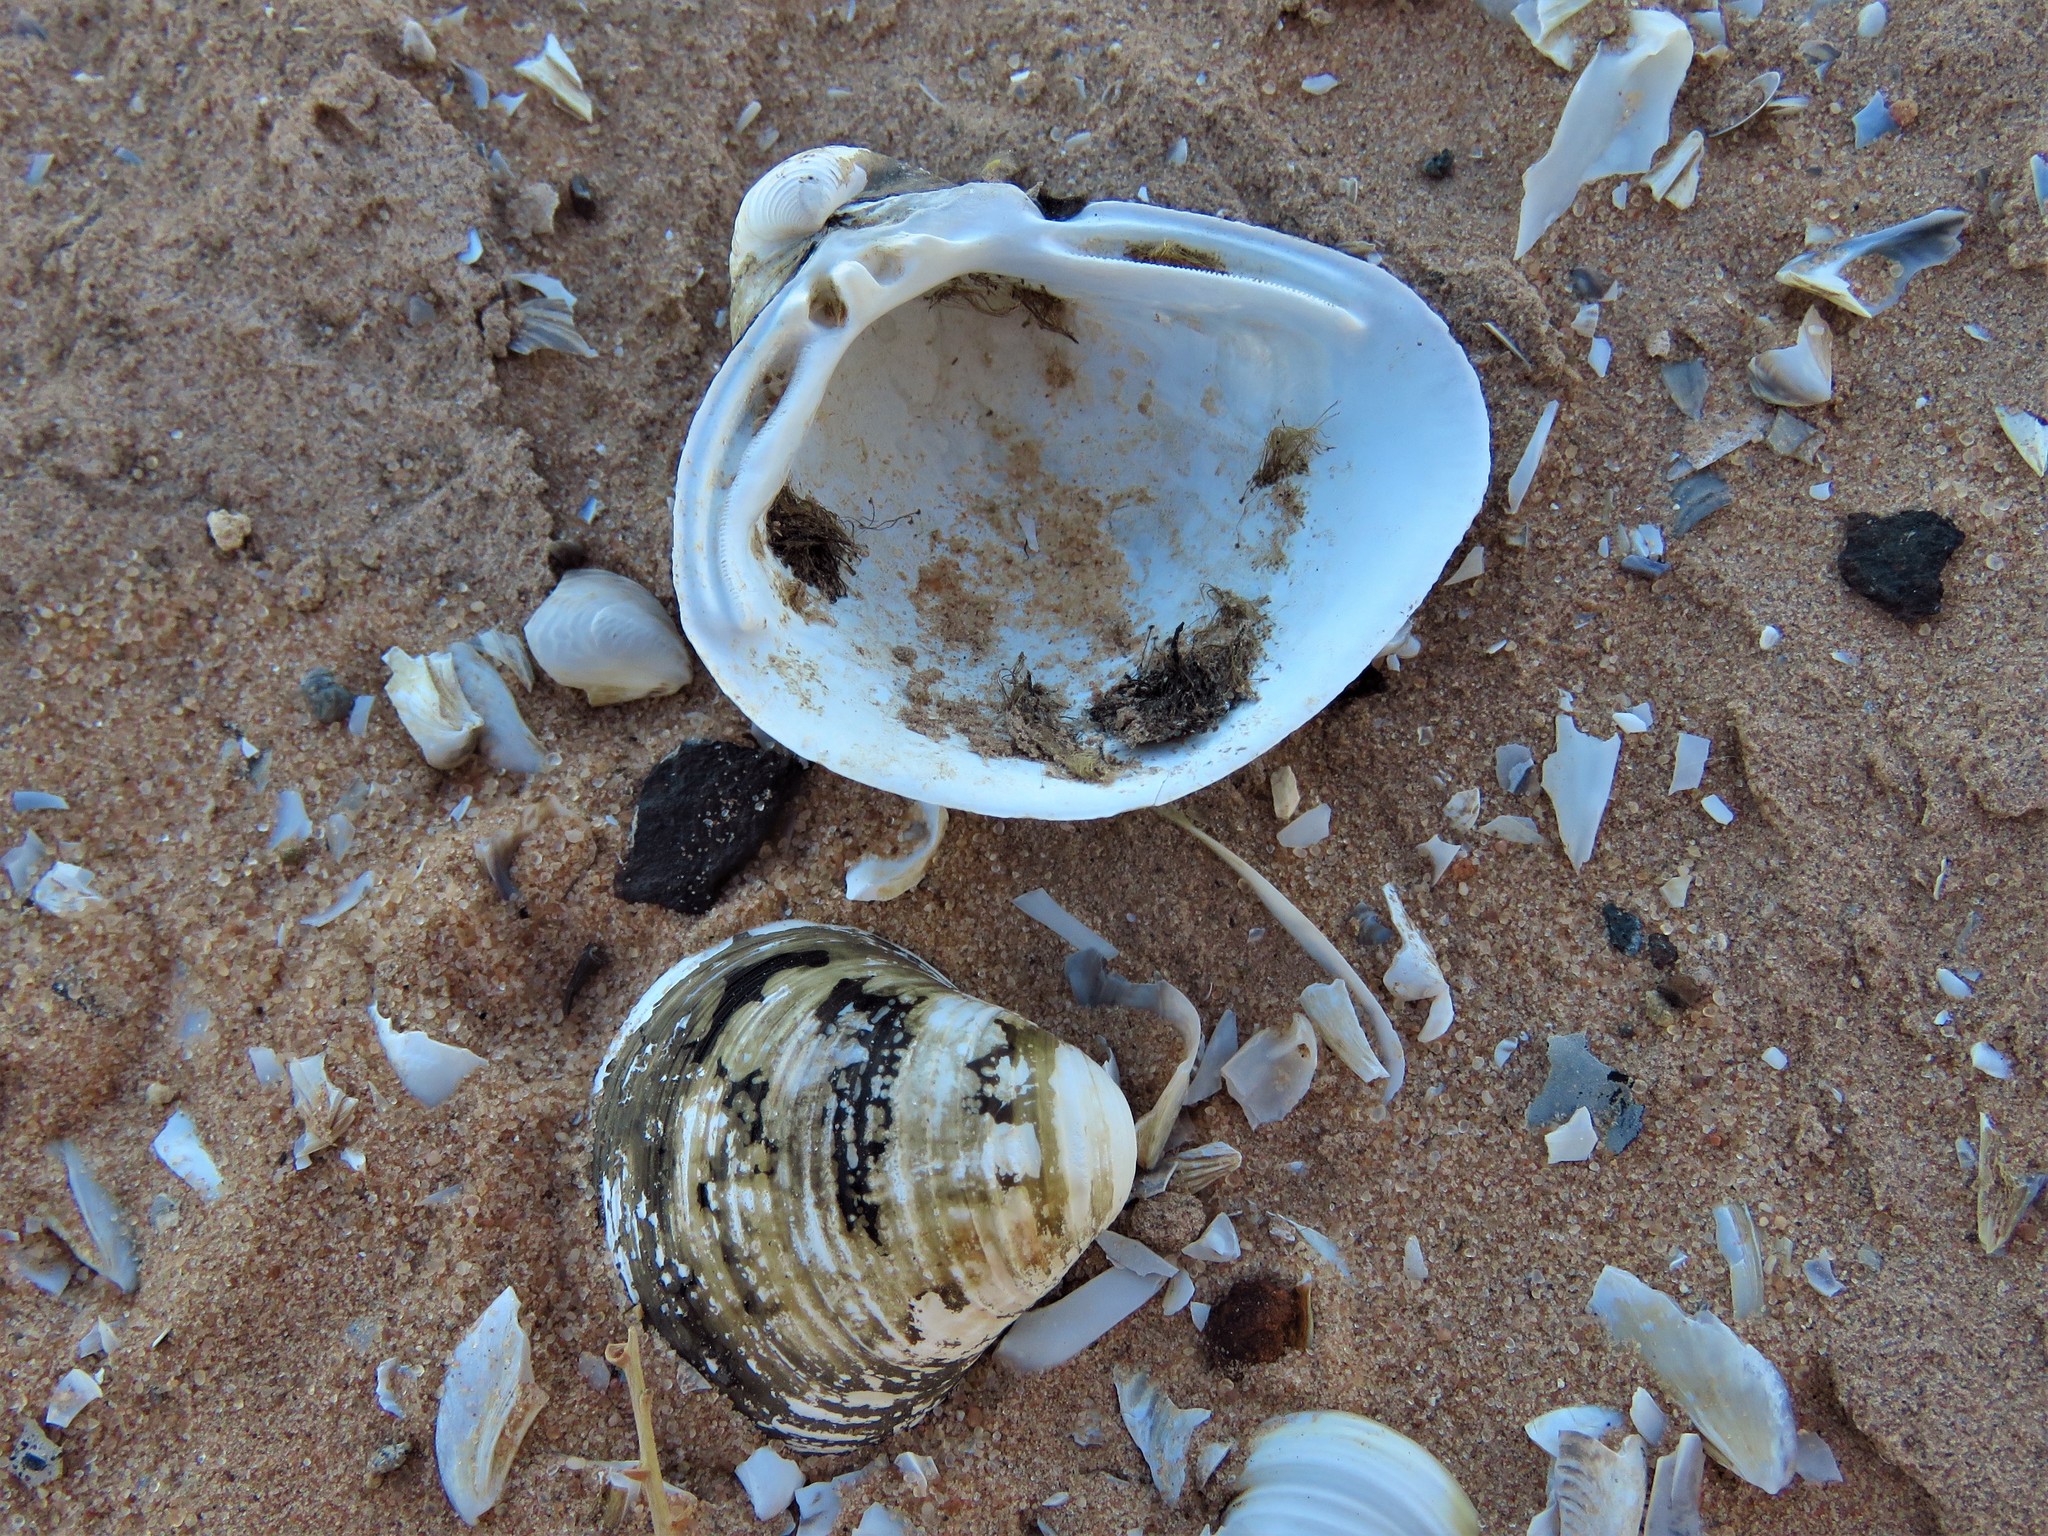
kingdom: Animalia
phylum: Mollusca
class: Bivalvia
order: Venerida
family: Cyrenidae
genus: Corbicula
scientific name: Corbicula fluminea
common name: Asian clam
